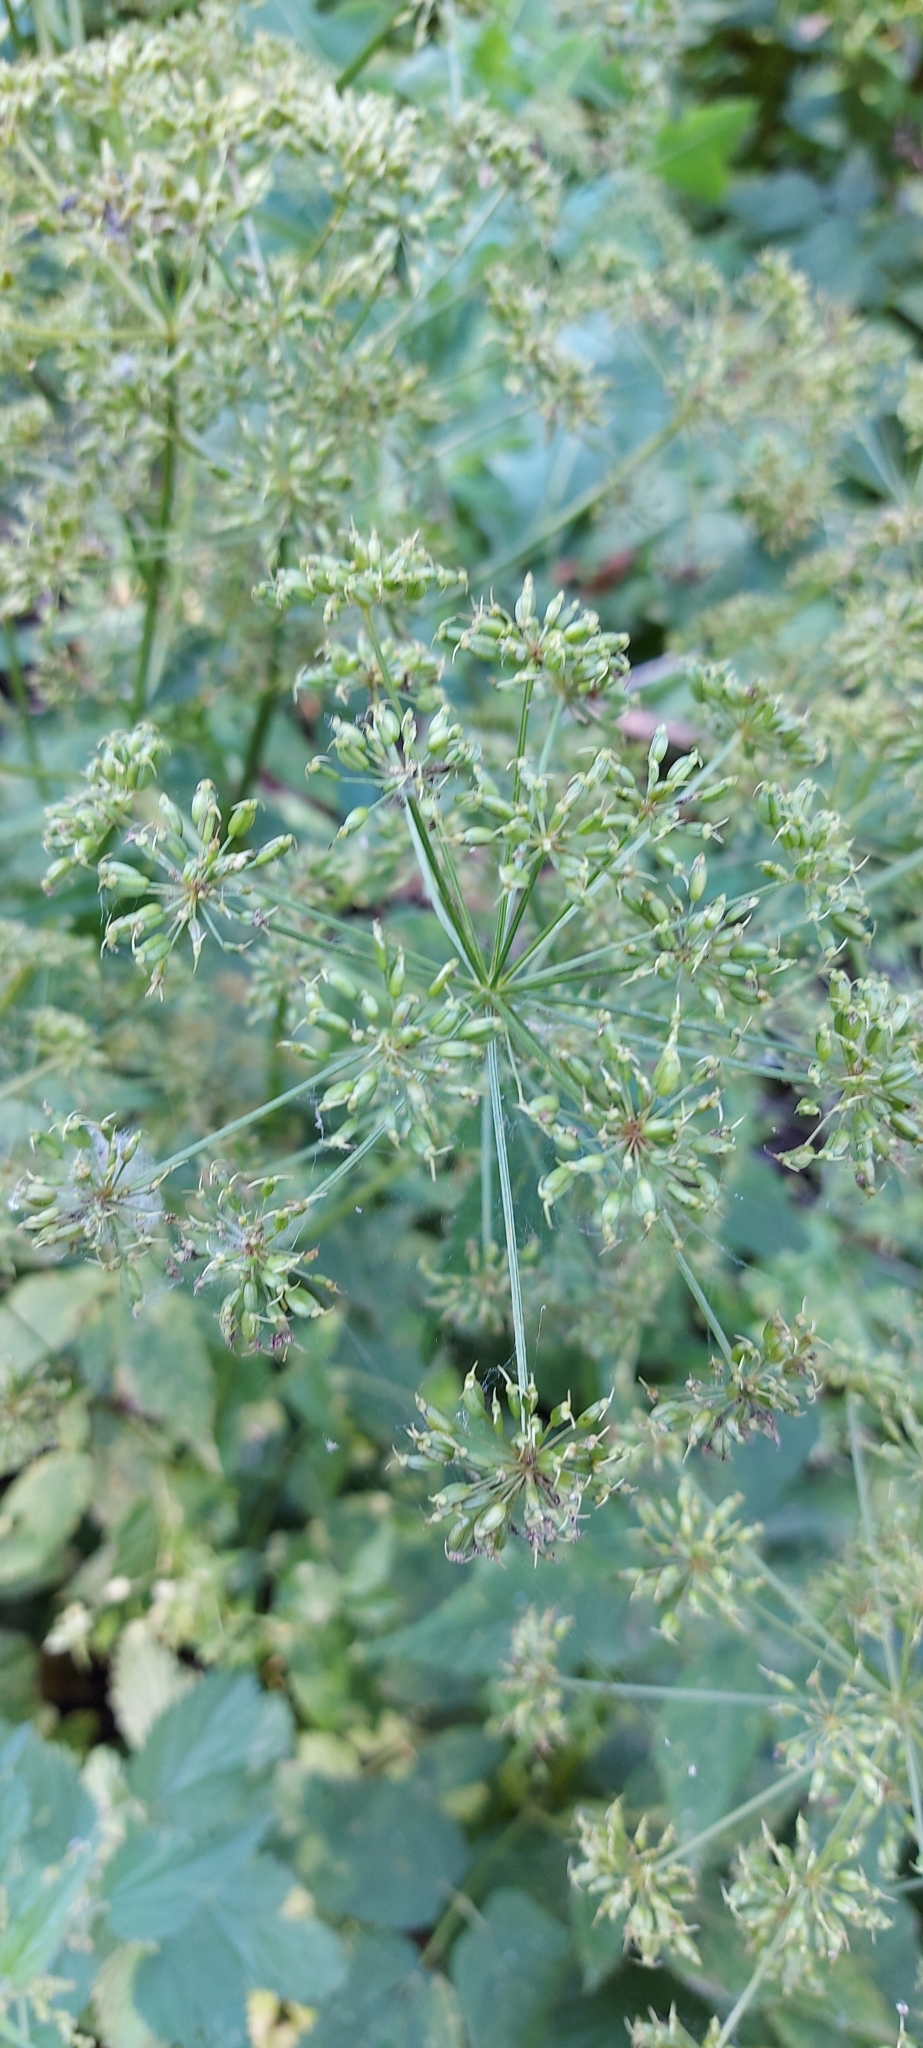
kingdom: Plantae
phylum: Tracheophyta
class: Magnoliopsida
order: Apiales
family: Apiaceae
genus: Aegopodium
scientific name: Aegopodium podagraria
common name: Ground-elder
